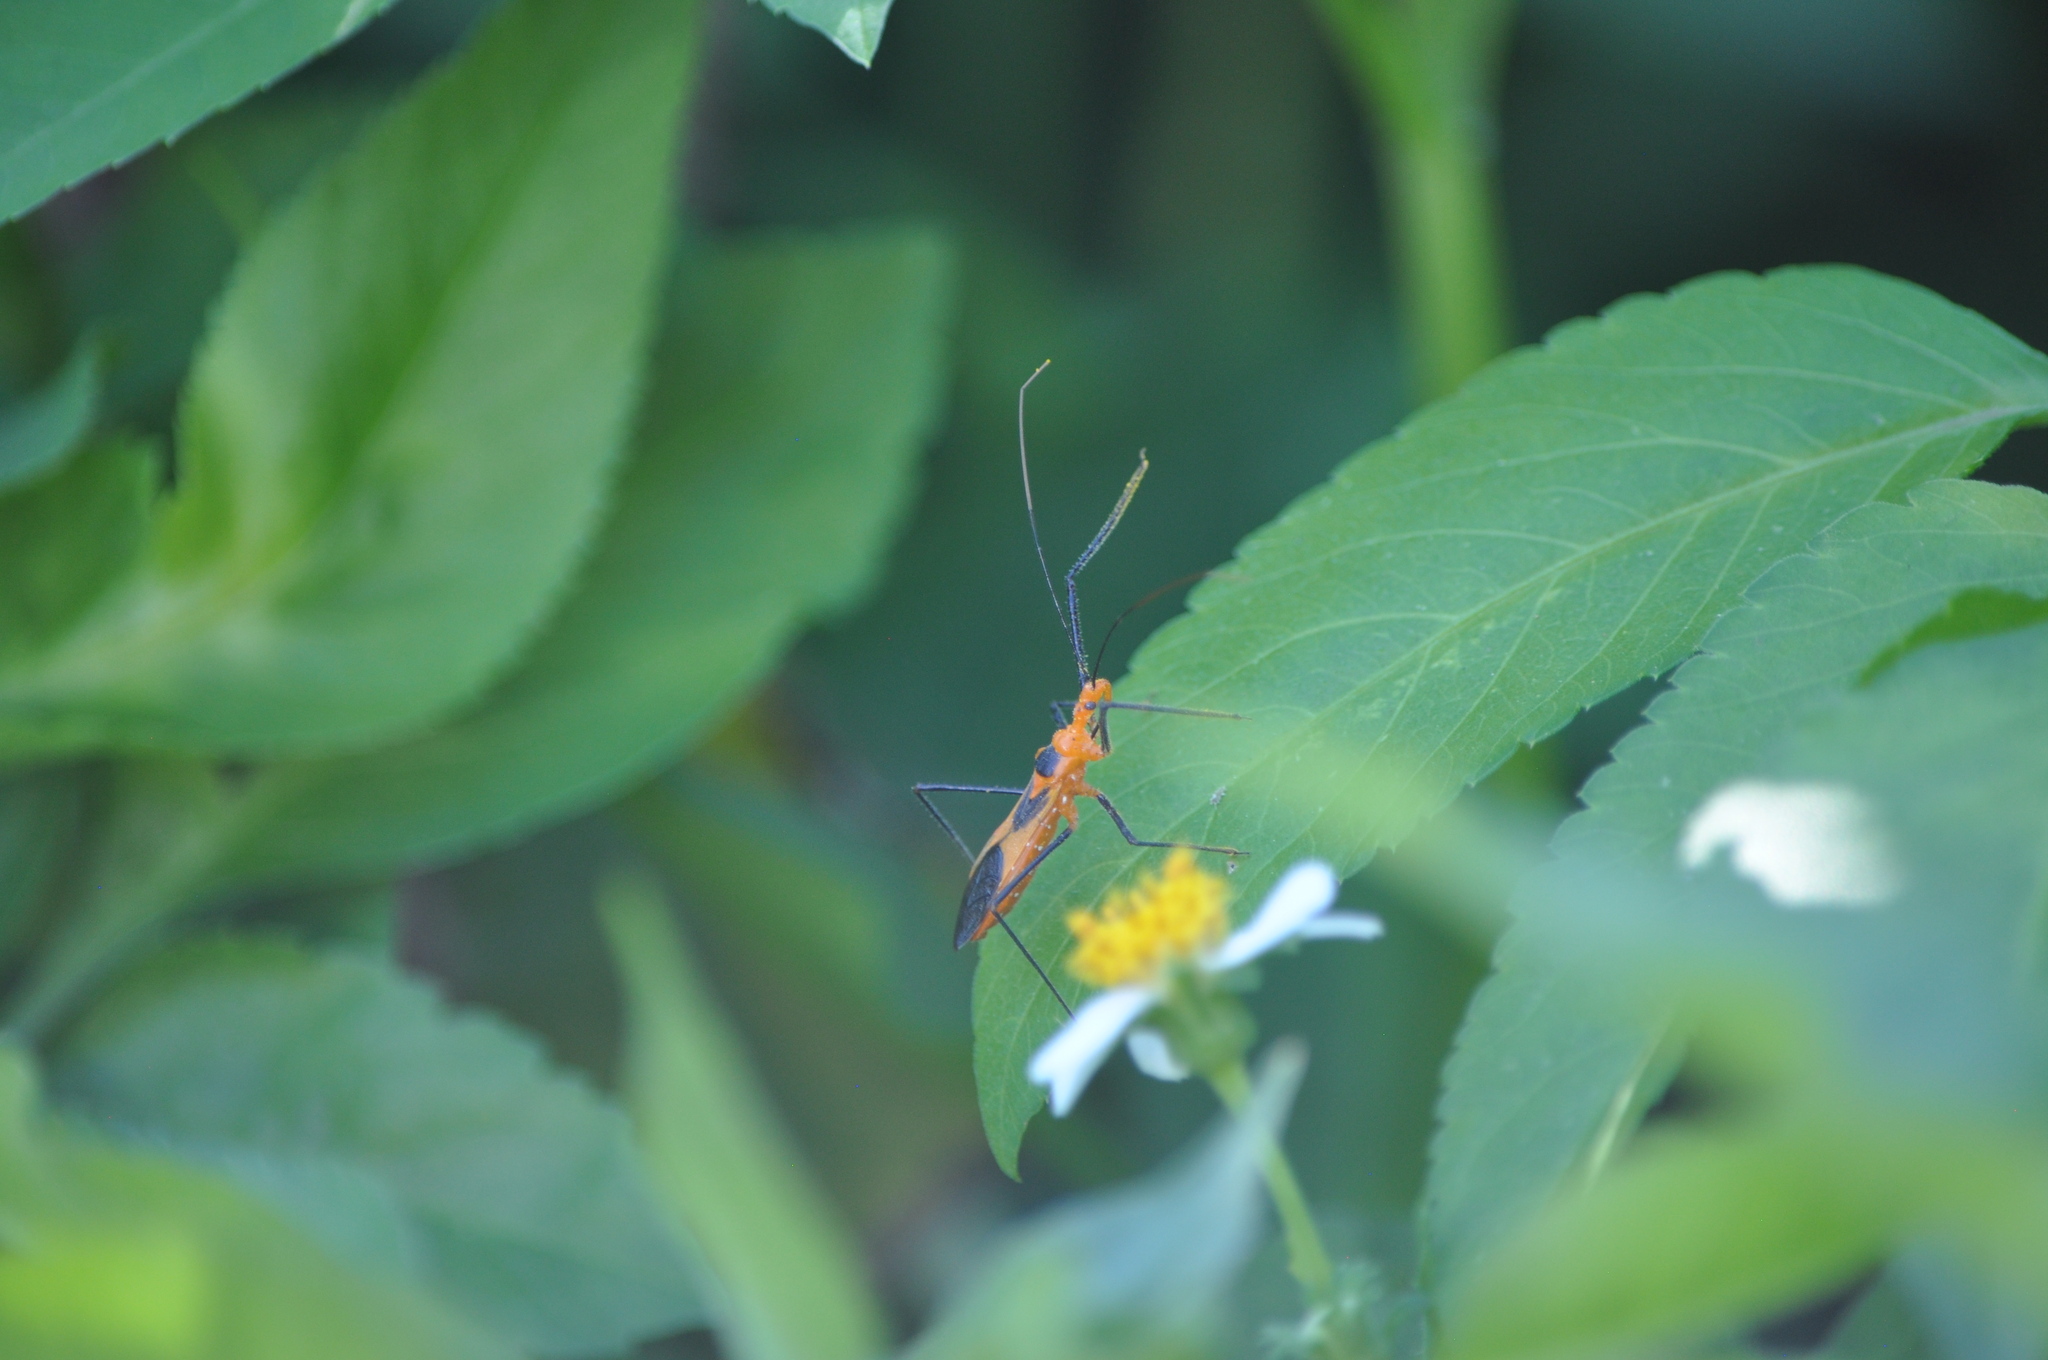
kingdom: Animalia
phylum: Arthropoda
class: Insecta
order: Hemiptera
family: Reduviidae
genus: Zelus
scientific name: Zelus longipes
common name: Milkweed assassin bug
